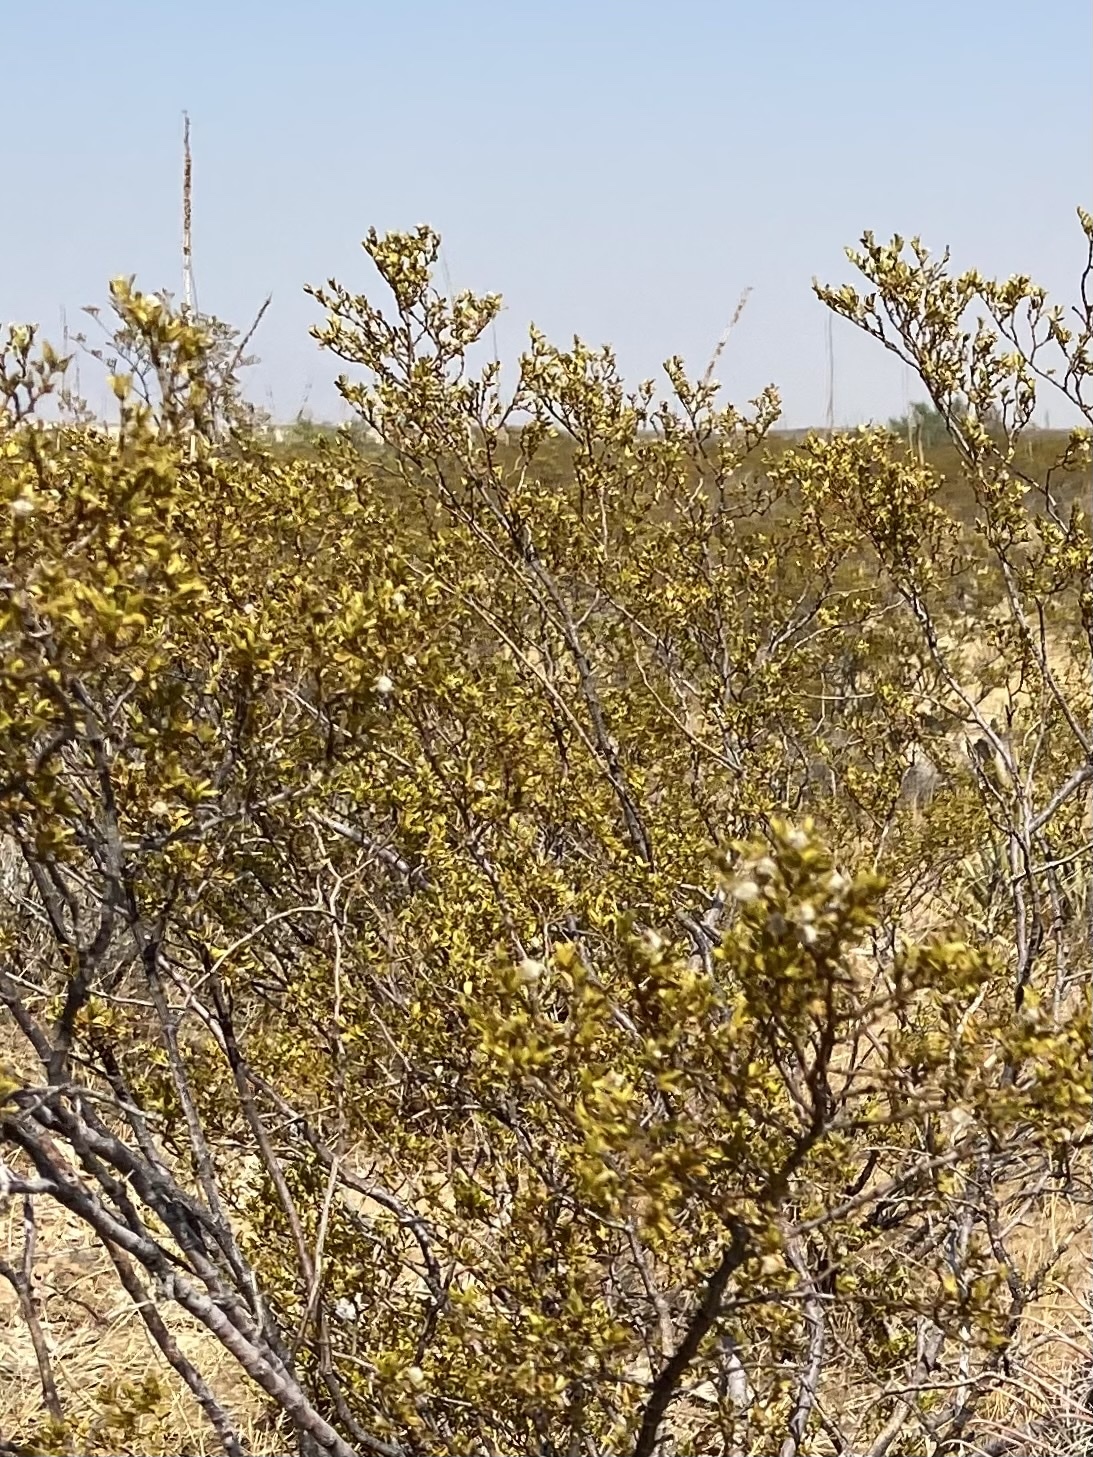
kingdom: Plantae
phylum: Tracheophyta
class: Magnoliopsida
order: Zygophyllales
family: Zygophyllaceae
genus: Larrea
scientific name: Larrea tridentata
